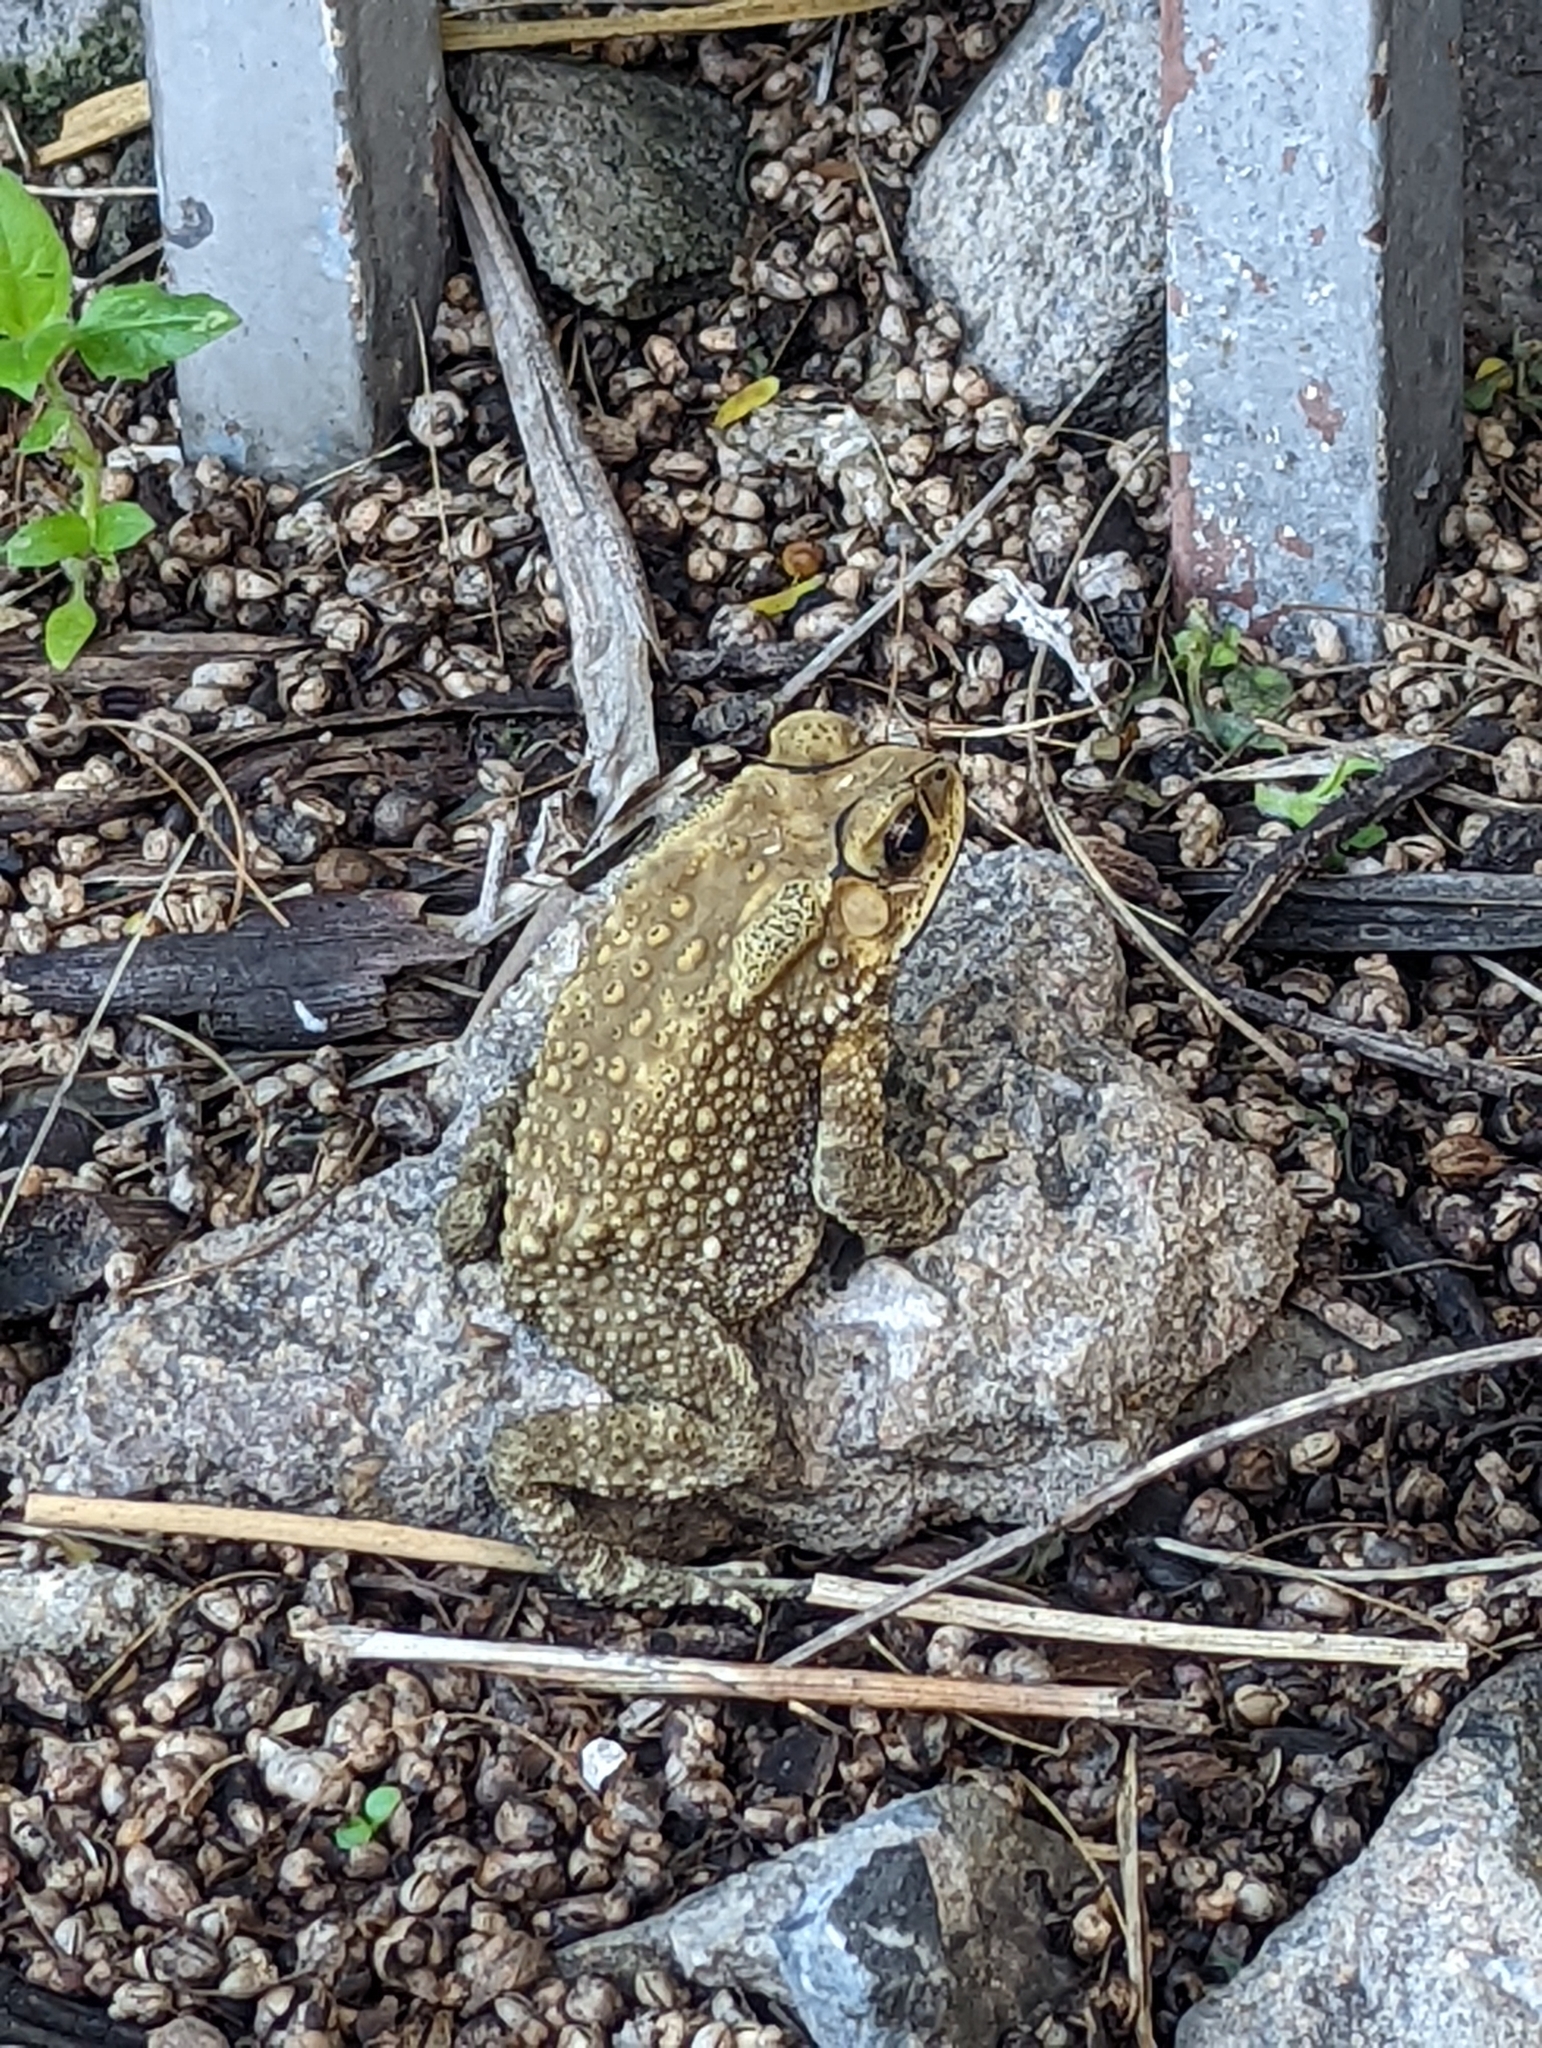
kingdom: Animalia
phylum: Chordata
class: Amphibia
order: Anura
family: Bufonidae
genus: Duttaphrynus
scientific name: Duttaphrynus melanostictus
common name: Common sunda toad
